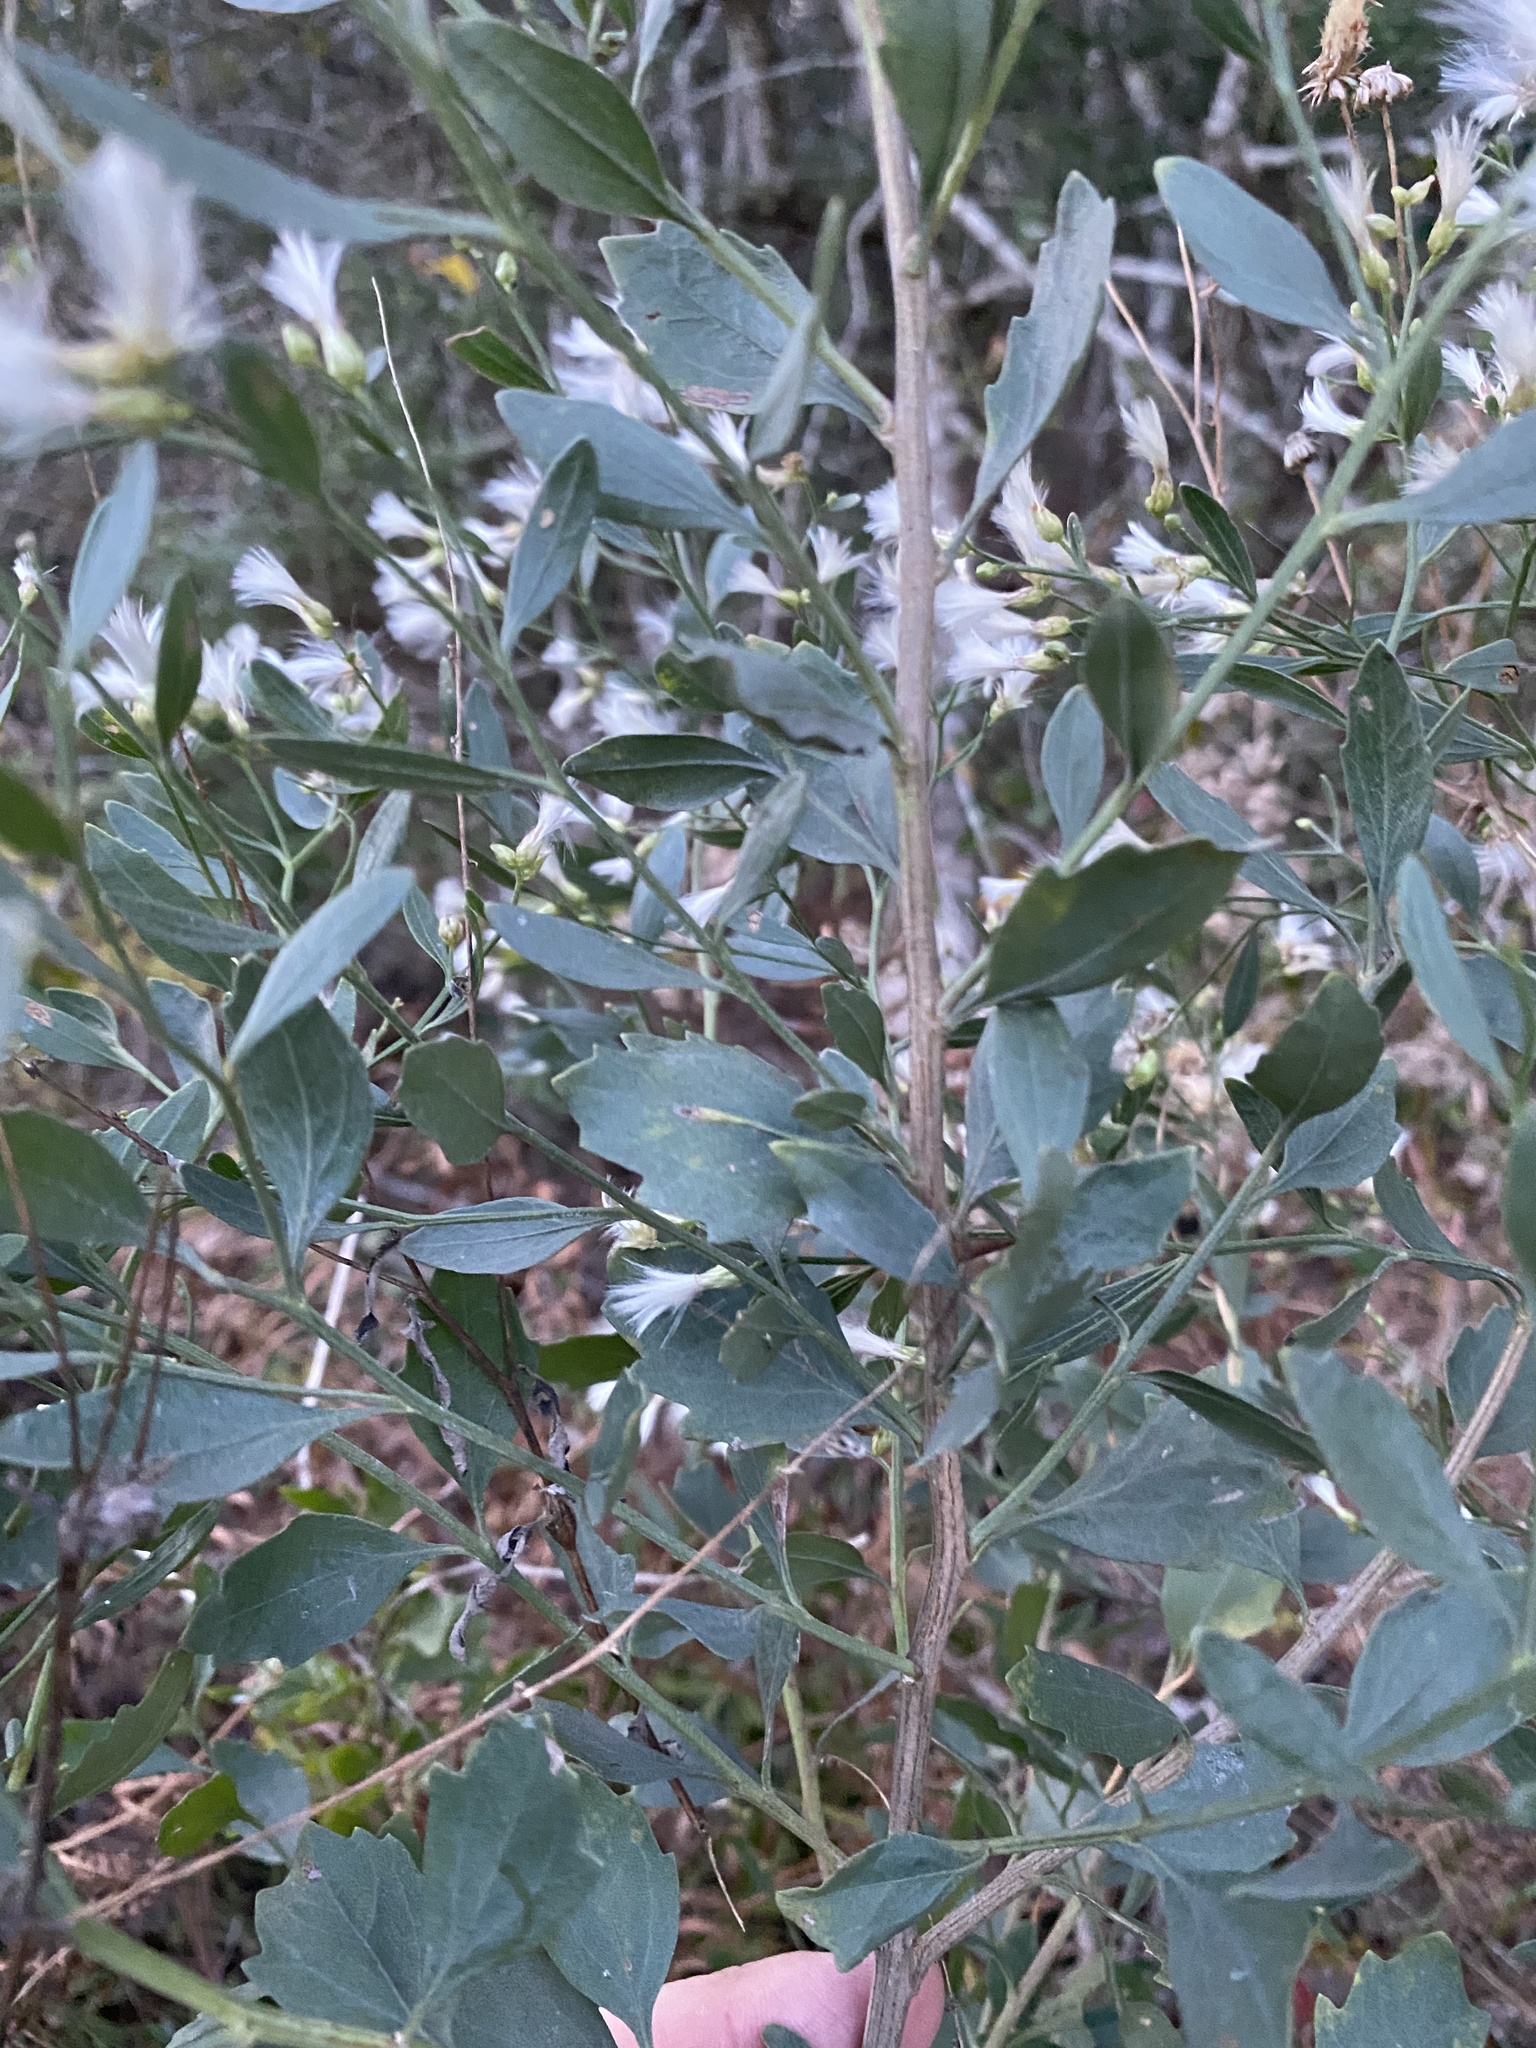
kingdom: Plantae
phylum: Tracheophyta
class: Magnoliopsida
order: Asterales
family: Asteraceae
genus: Baccharis
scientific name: Baccharis halimifolia
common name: Eastern baccharis
